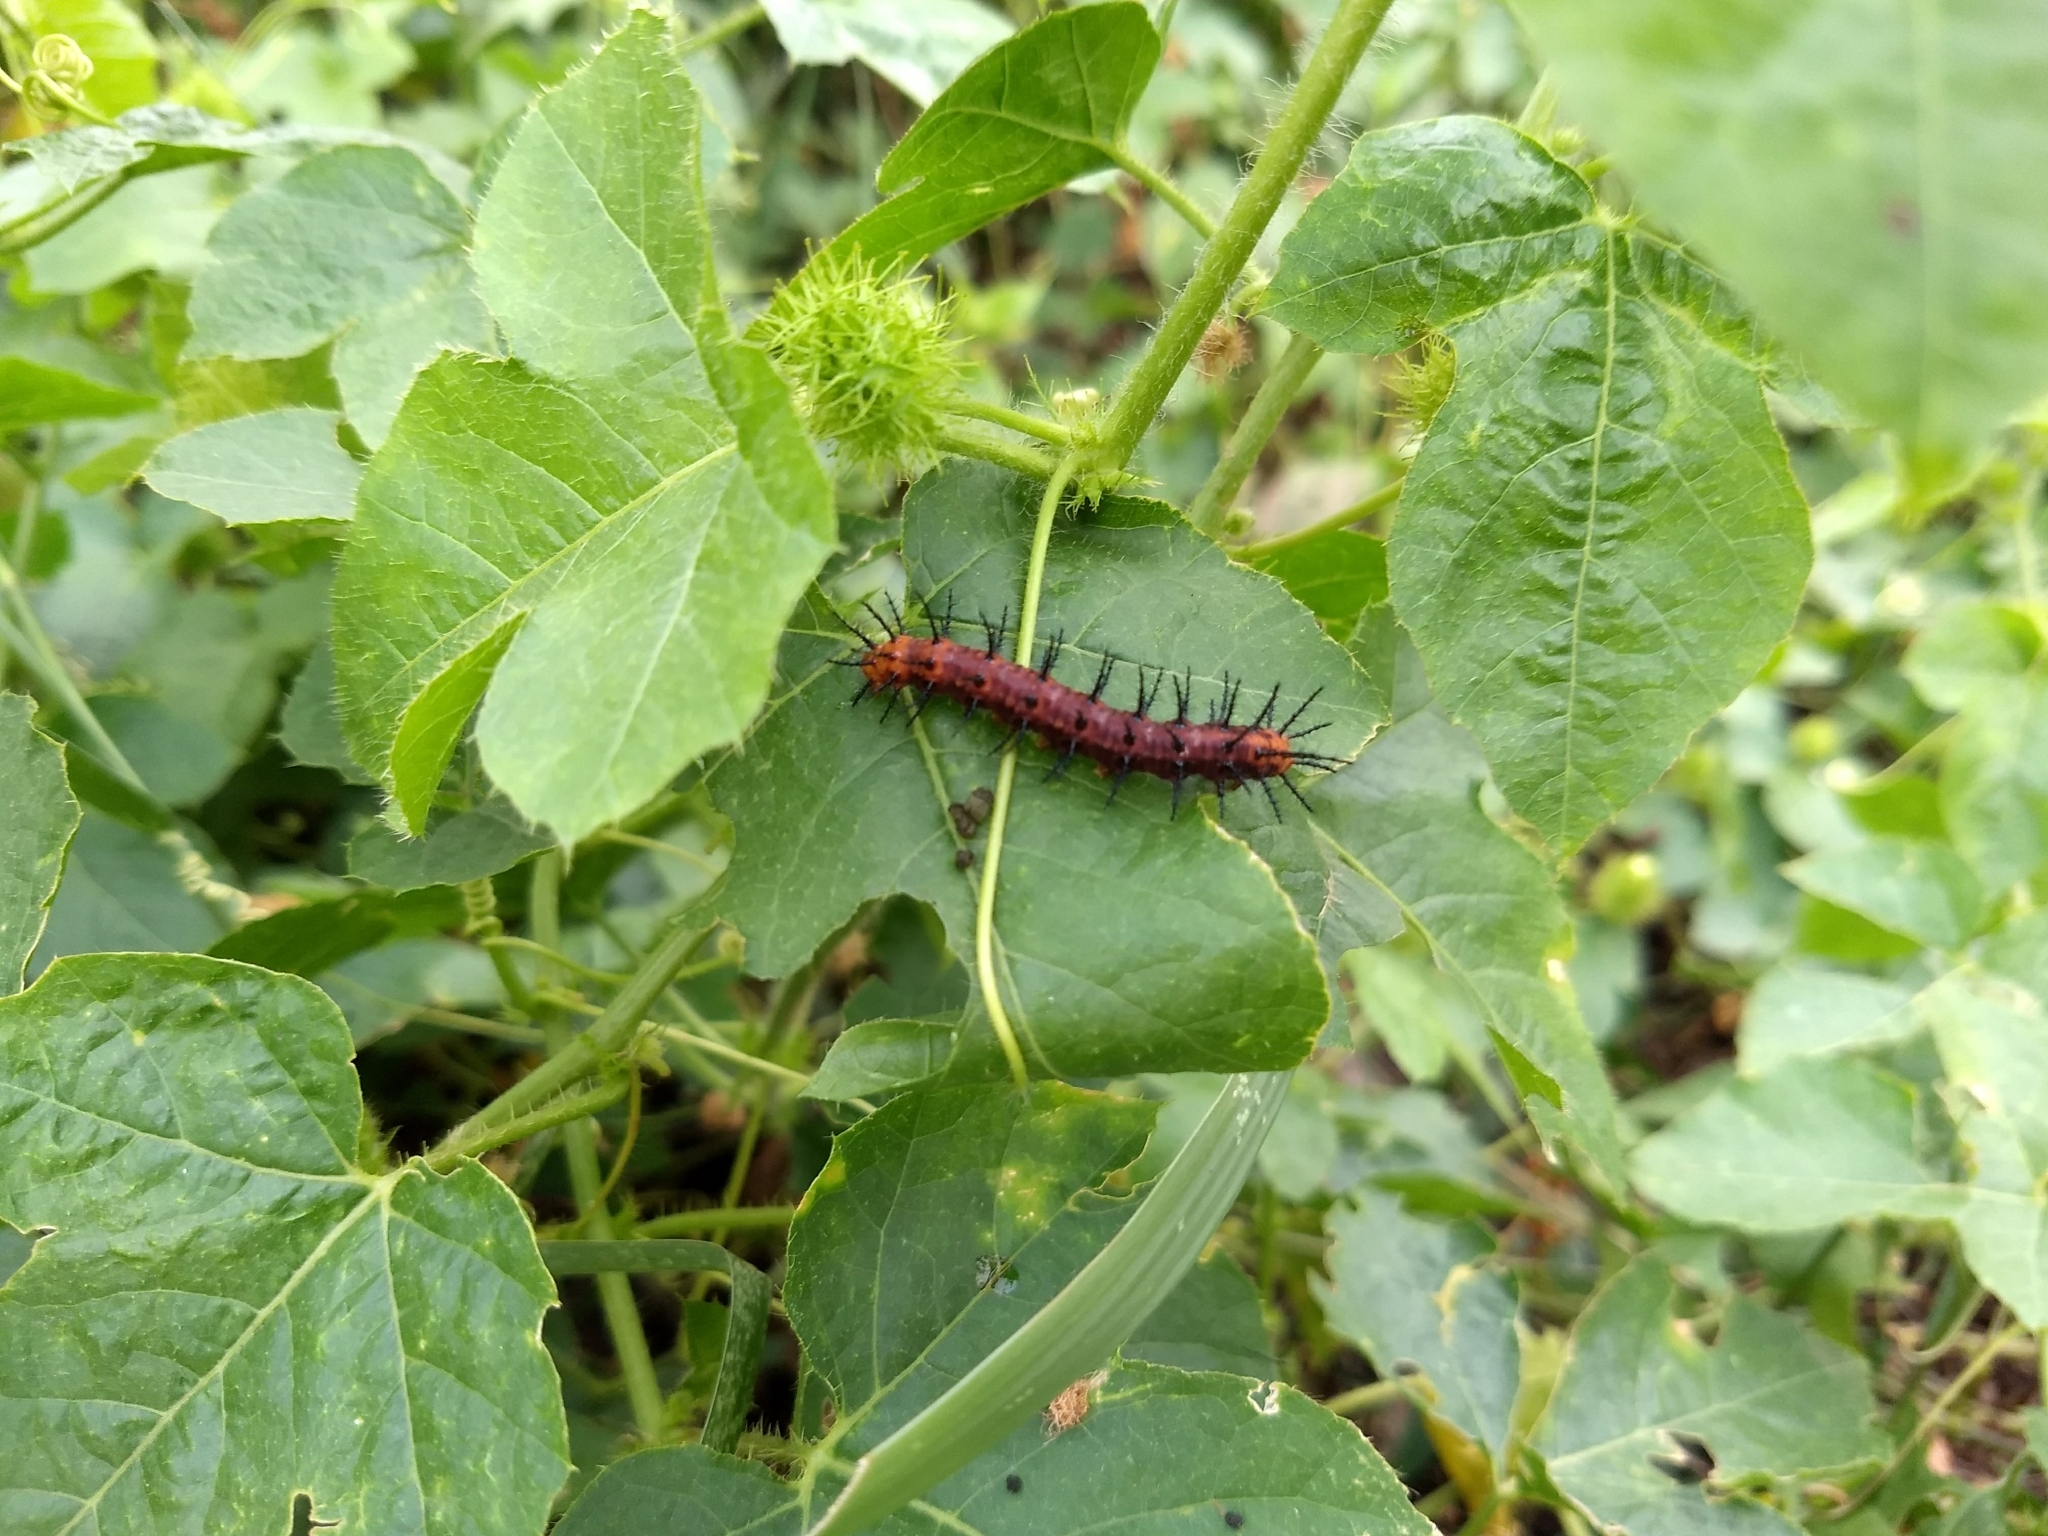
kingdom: Animalia
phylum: Arthropoda
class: Insecta
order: Lepidoptera
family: Nymphalidae
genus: Acraea
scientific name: Acraea terpsicore
